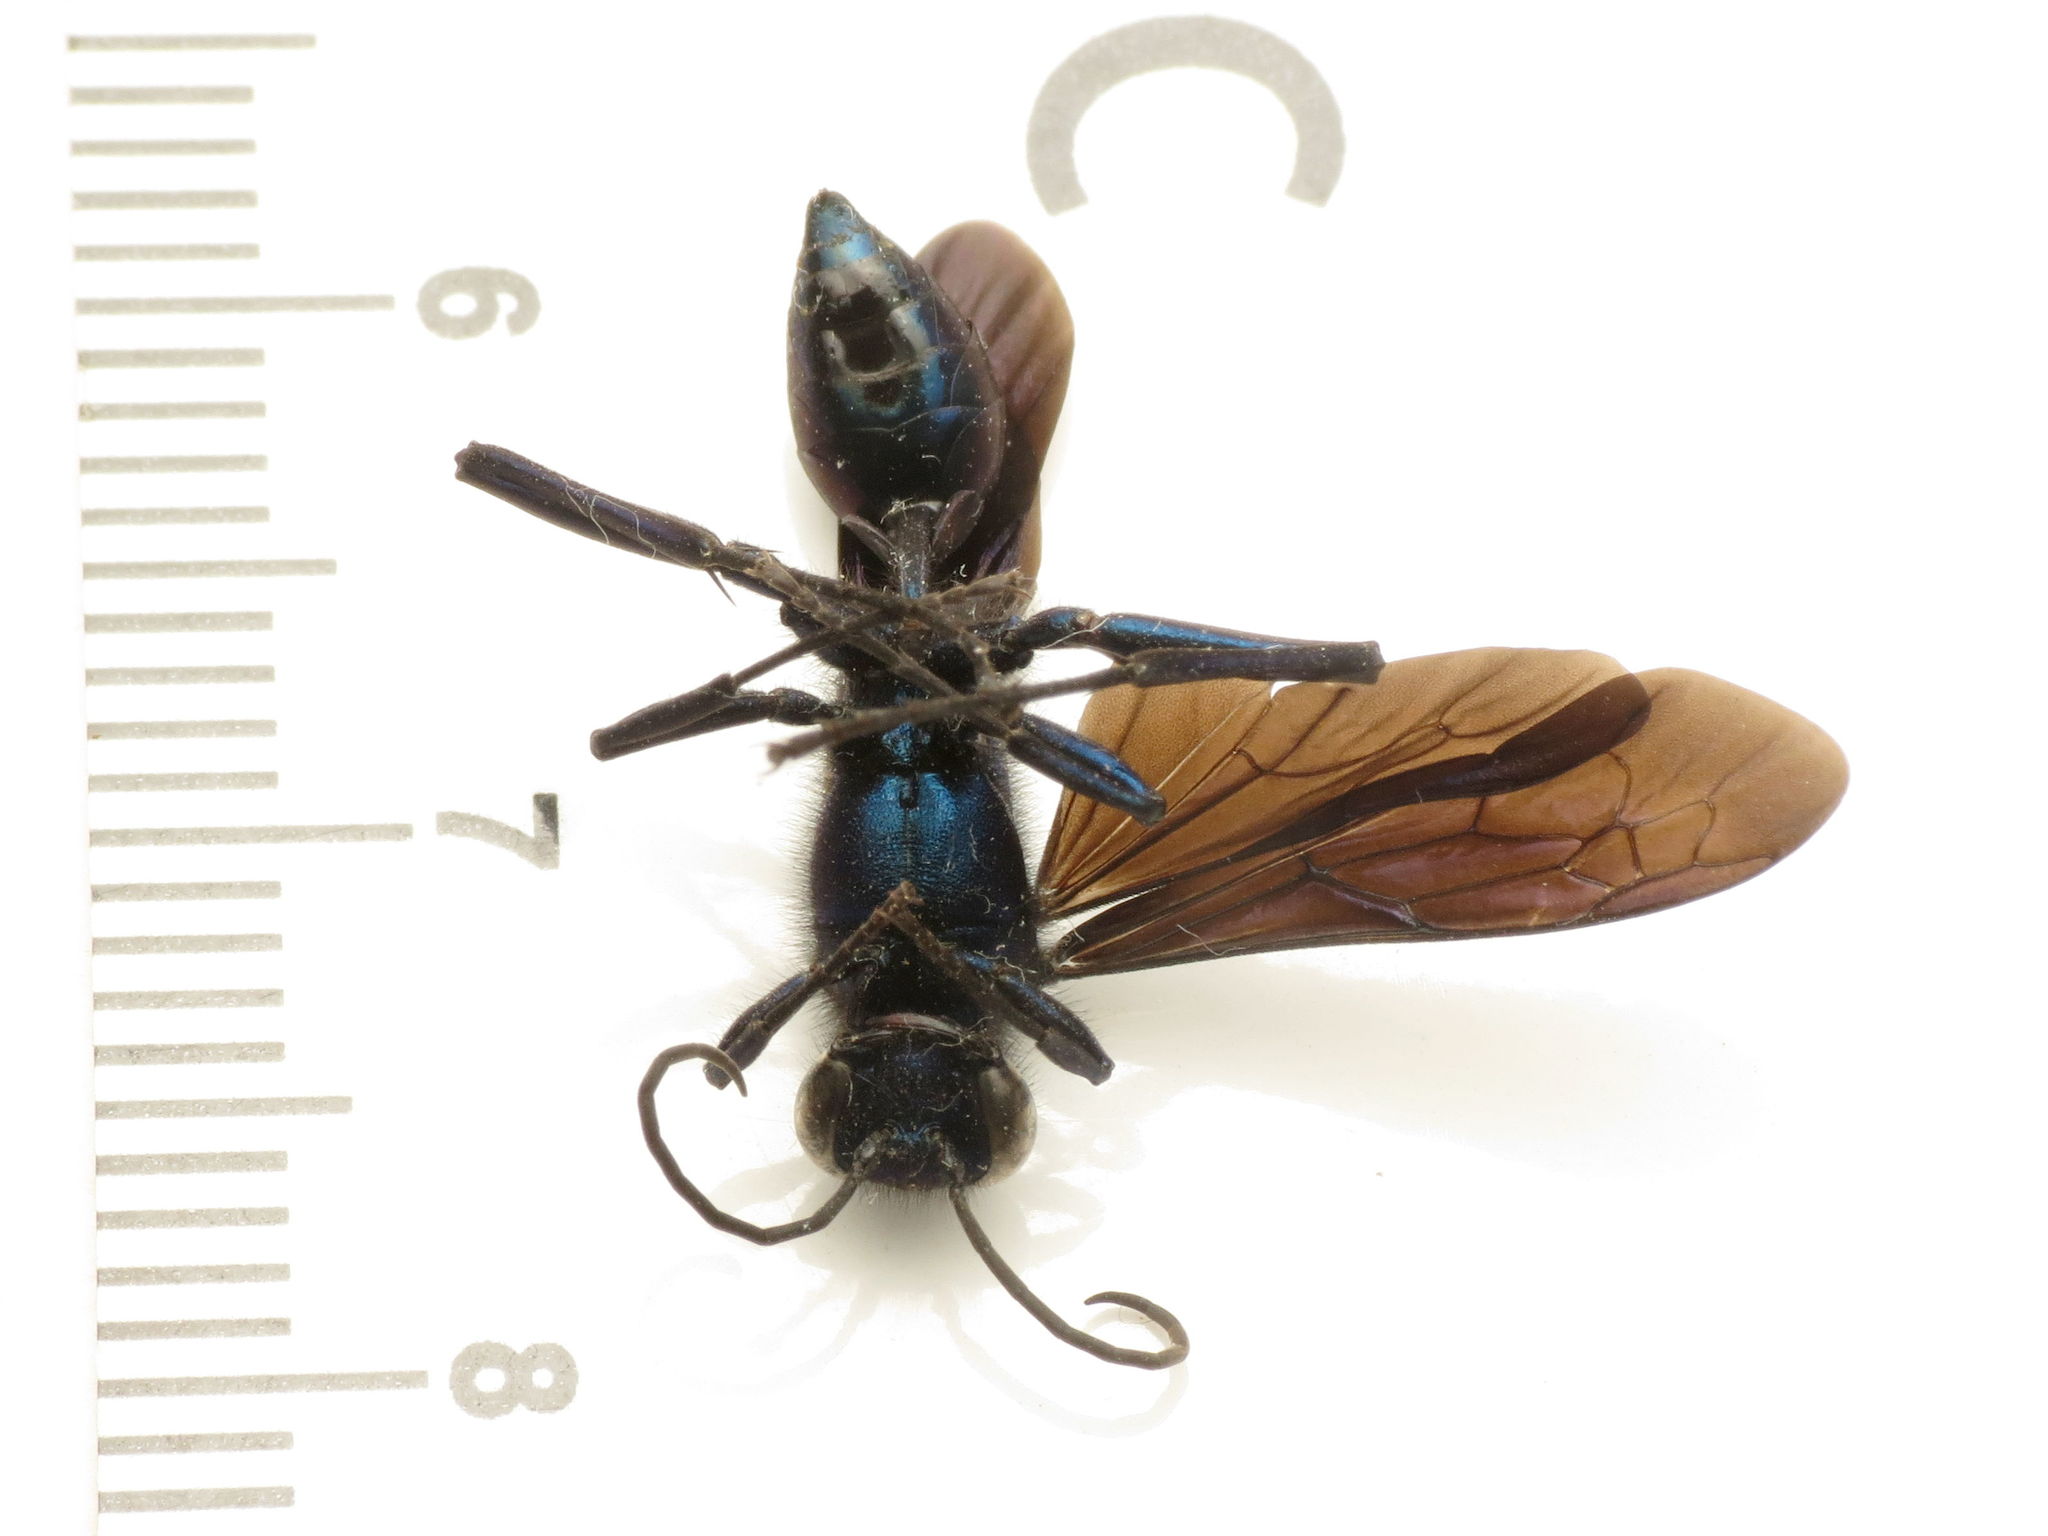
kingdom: Animalia
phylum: Arthropoda
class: Insecta
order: Hymenoptera
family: Sphecidae
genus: Chalybion
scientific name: Chalybion californicum
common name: Mud dauber
